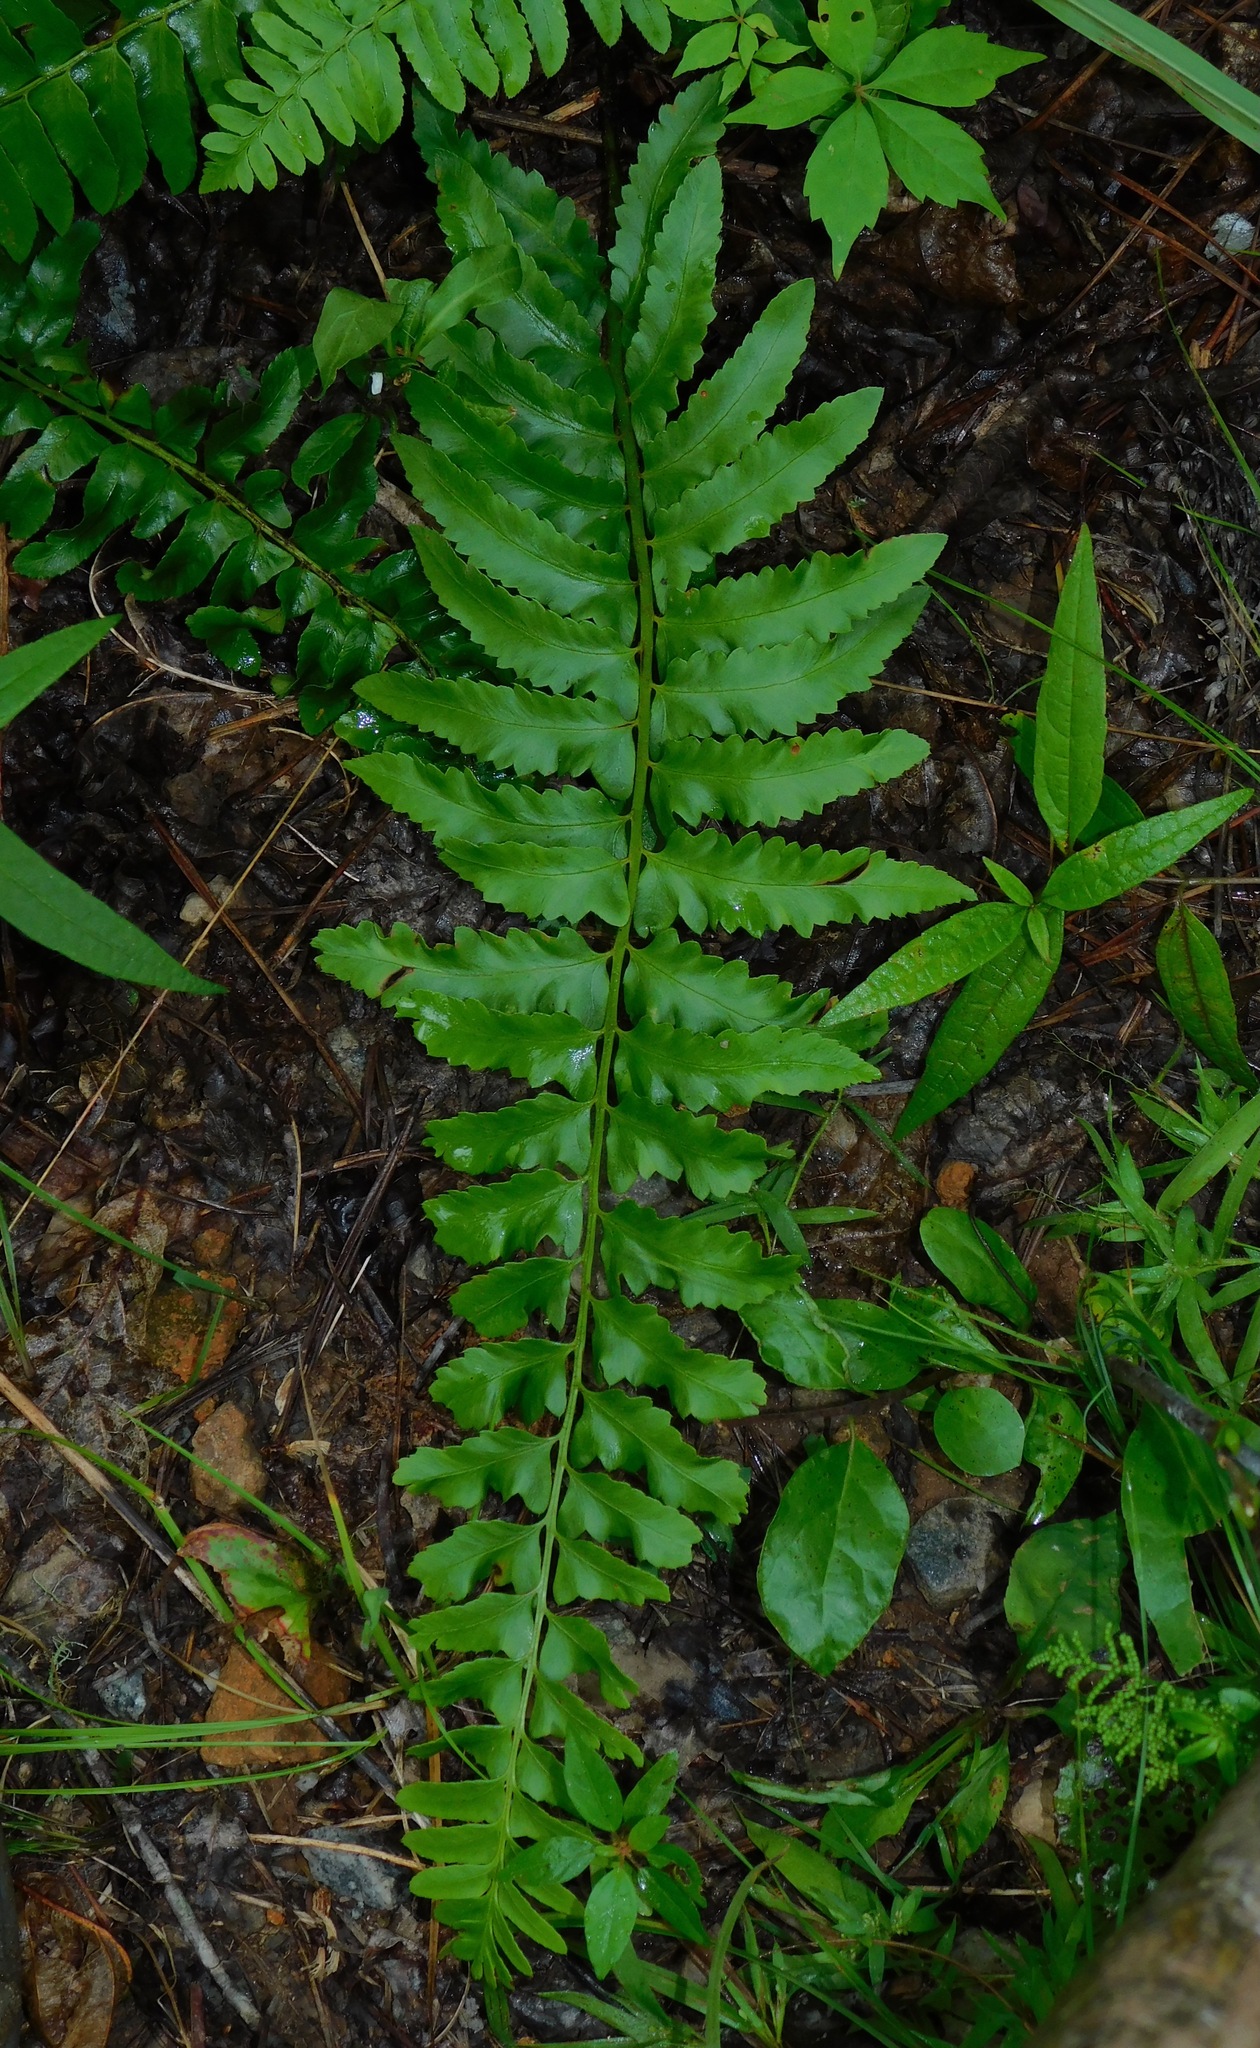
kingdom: Plantae
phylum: Tracheophyta
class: Polypodiopsida
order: Polypodiales
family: Dryopteridaceae
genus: Polystichum
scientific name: Polystichum acrostichoides
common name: Christmas fern
